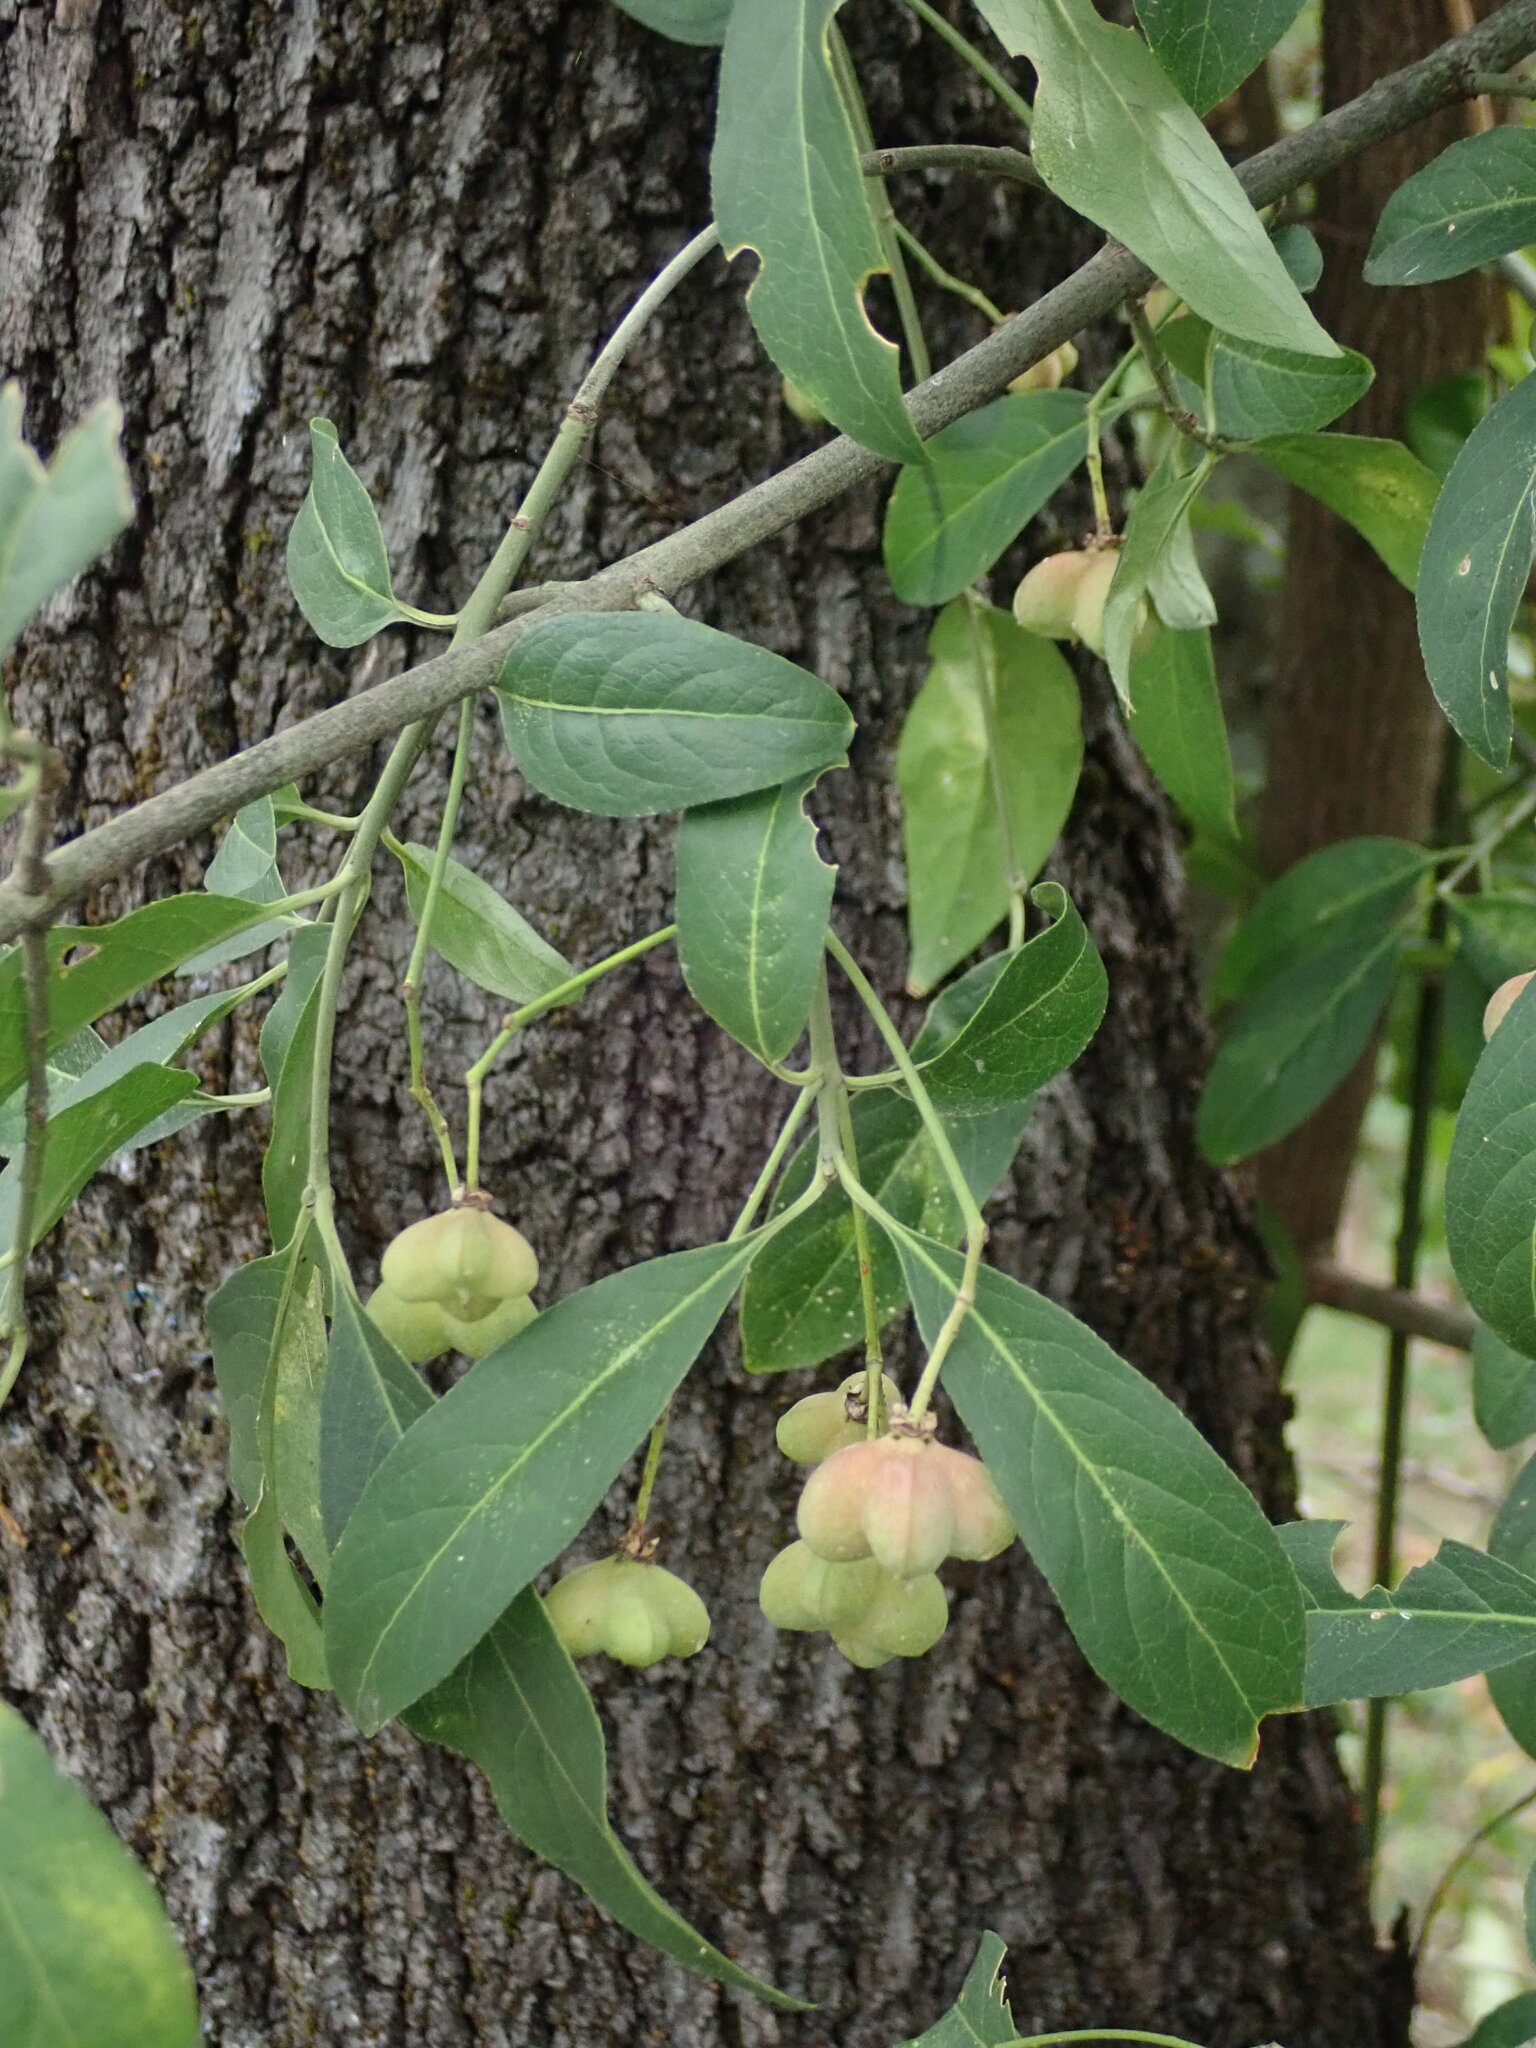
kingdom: Plantae
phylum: Tracheophyta
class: Magnoliopsida
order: Celastrales
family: Celastraceae
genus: Euonymus
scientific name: Euonymus europaeus
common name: Spindle
